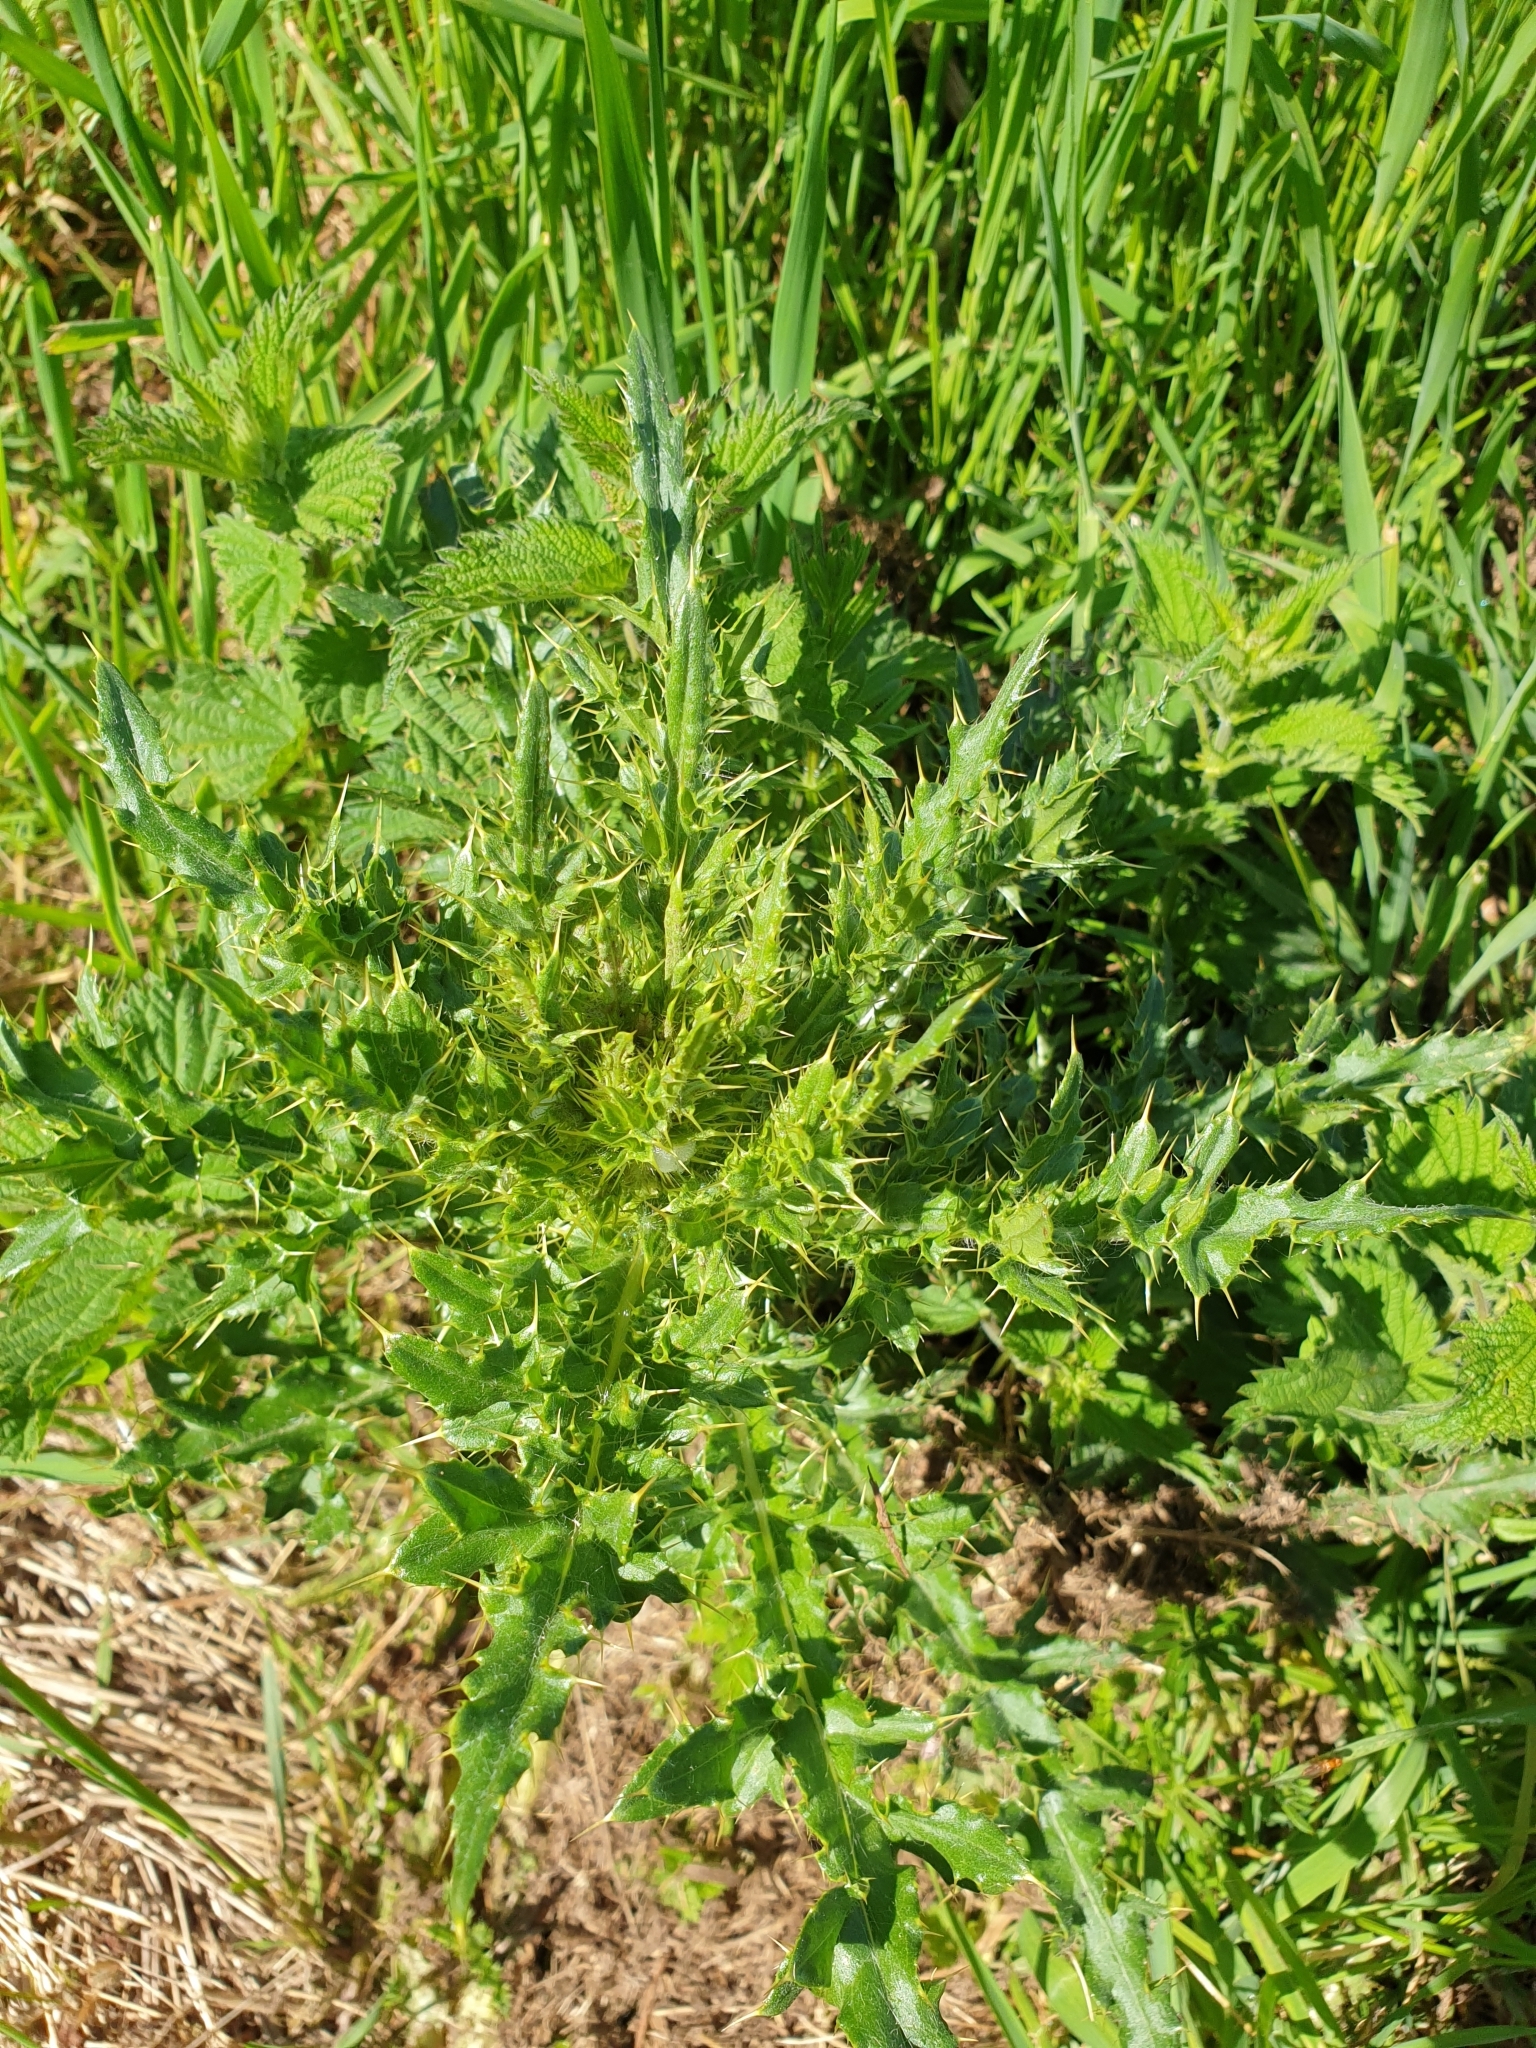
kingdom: Plantae
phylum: Tracheophyta
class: Magnoliopsida
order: Asterales
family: Asteraceae
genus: Cirsium
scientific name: Cirsium arvense
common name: Creeping thistle
